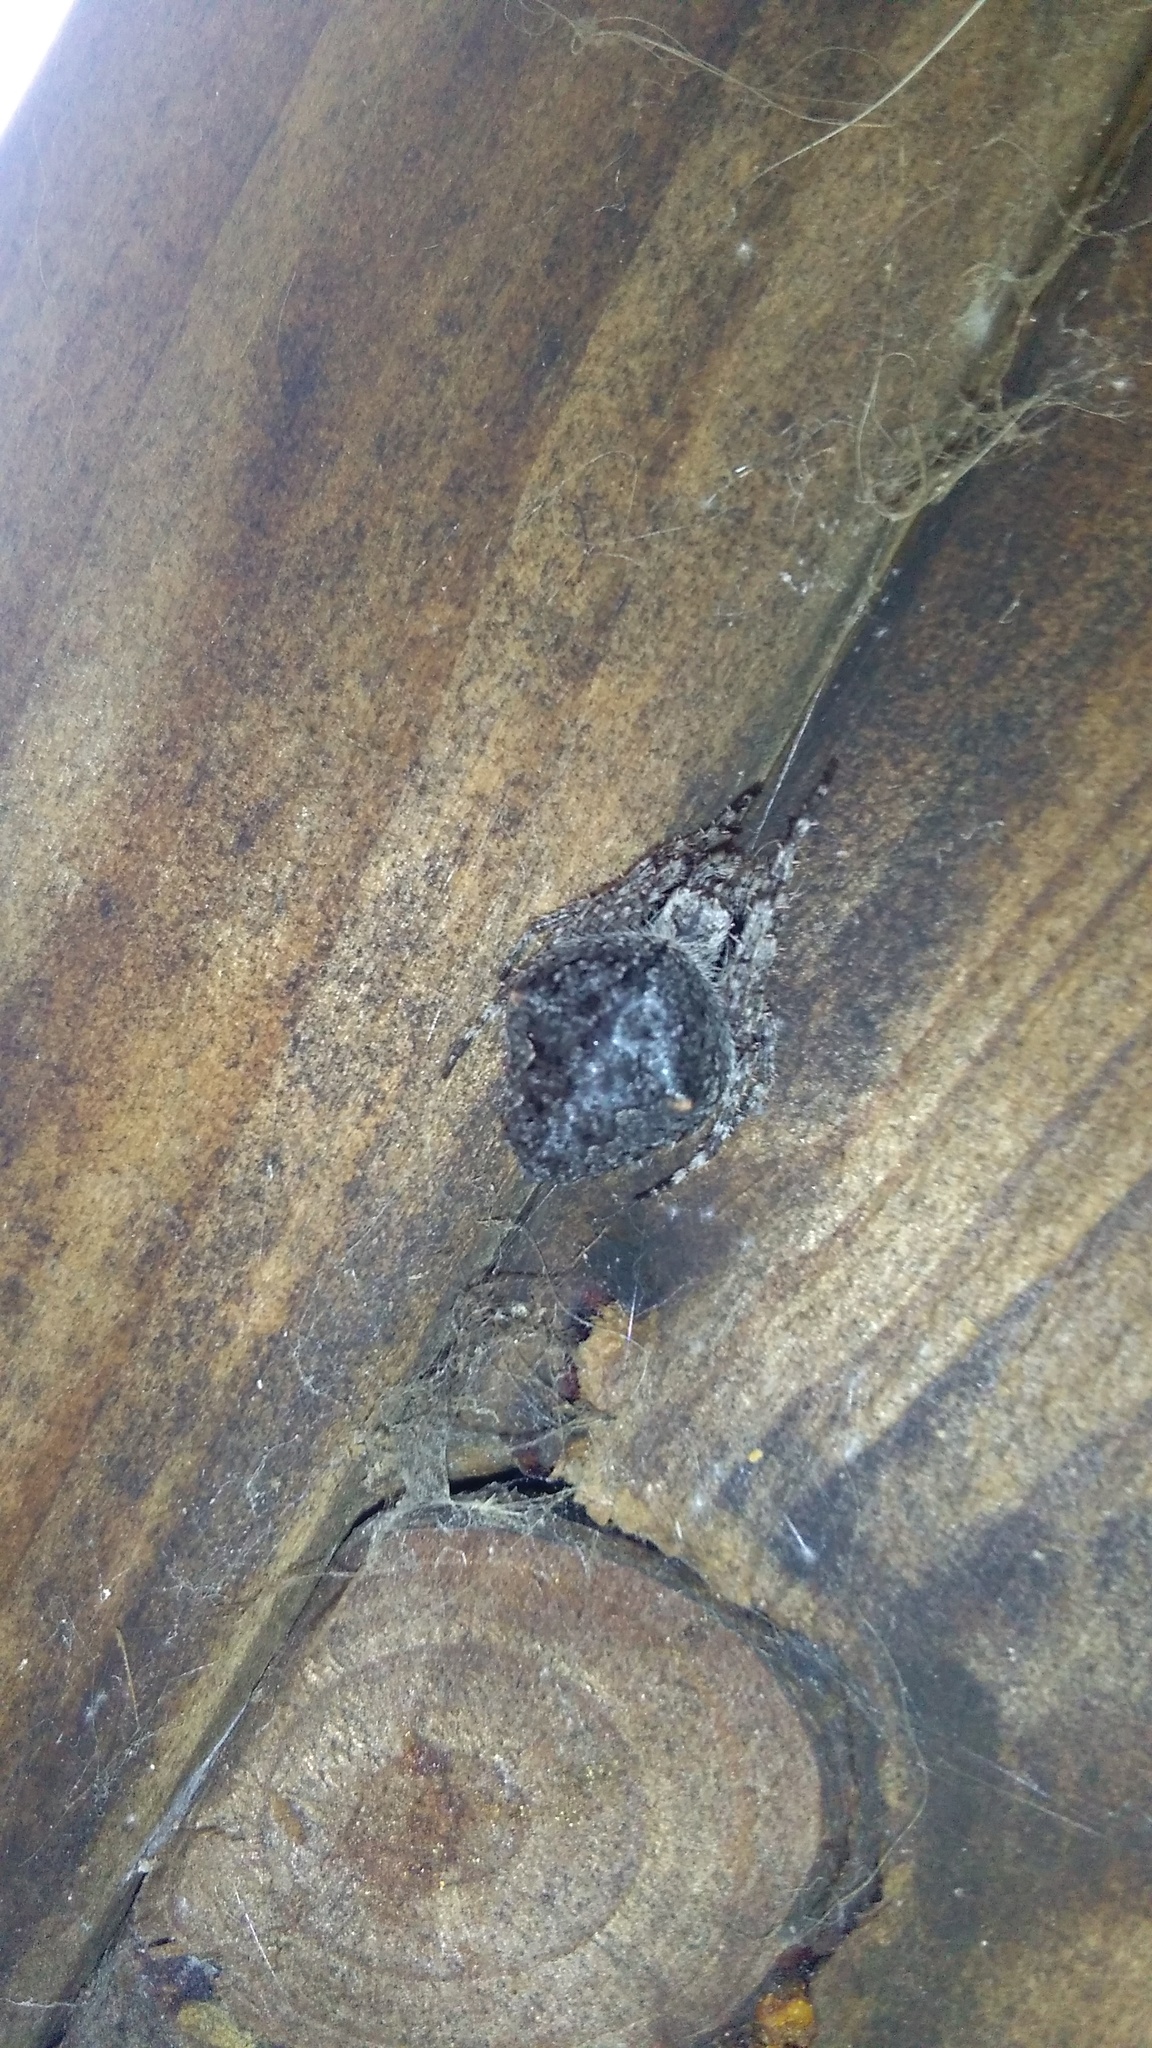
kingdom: Animalia
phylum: Arthropoda
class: Arachnida
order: Araneae
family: Araneidae
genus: Eriophora
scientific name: Eriophora pustulosa
